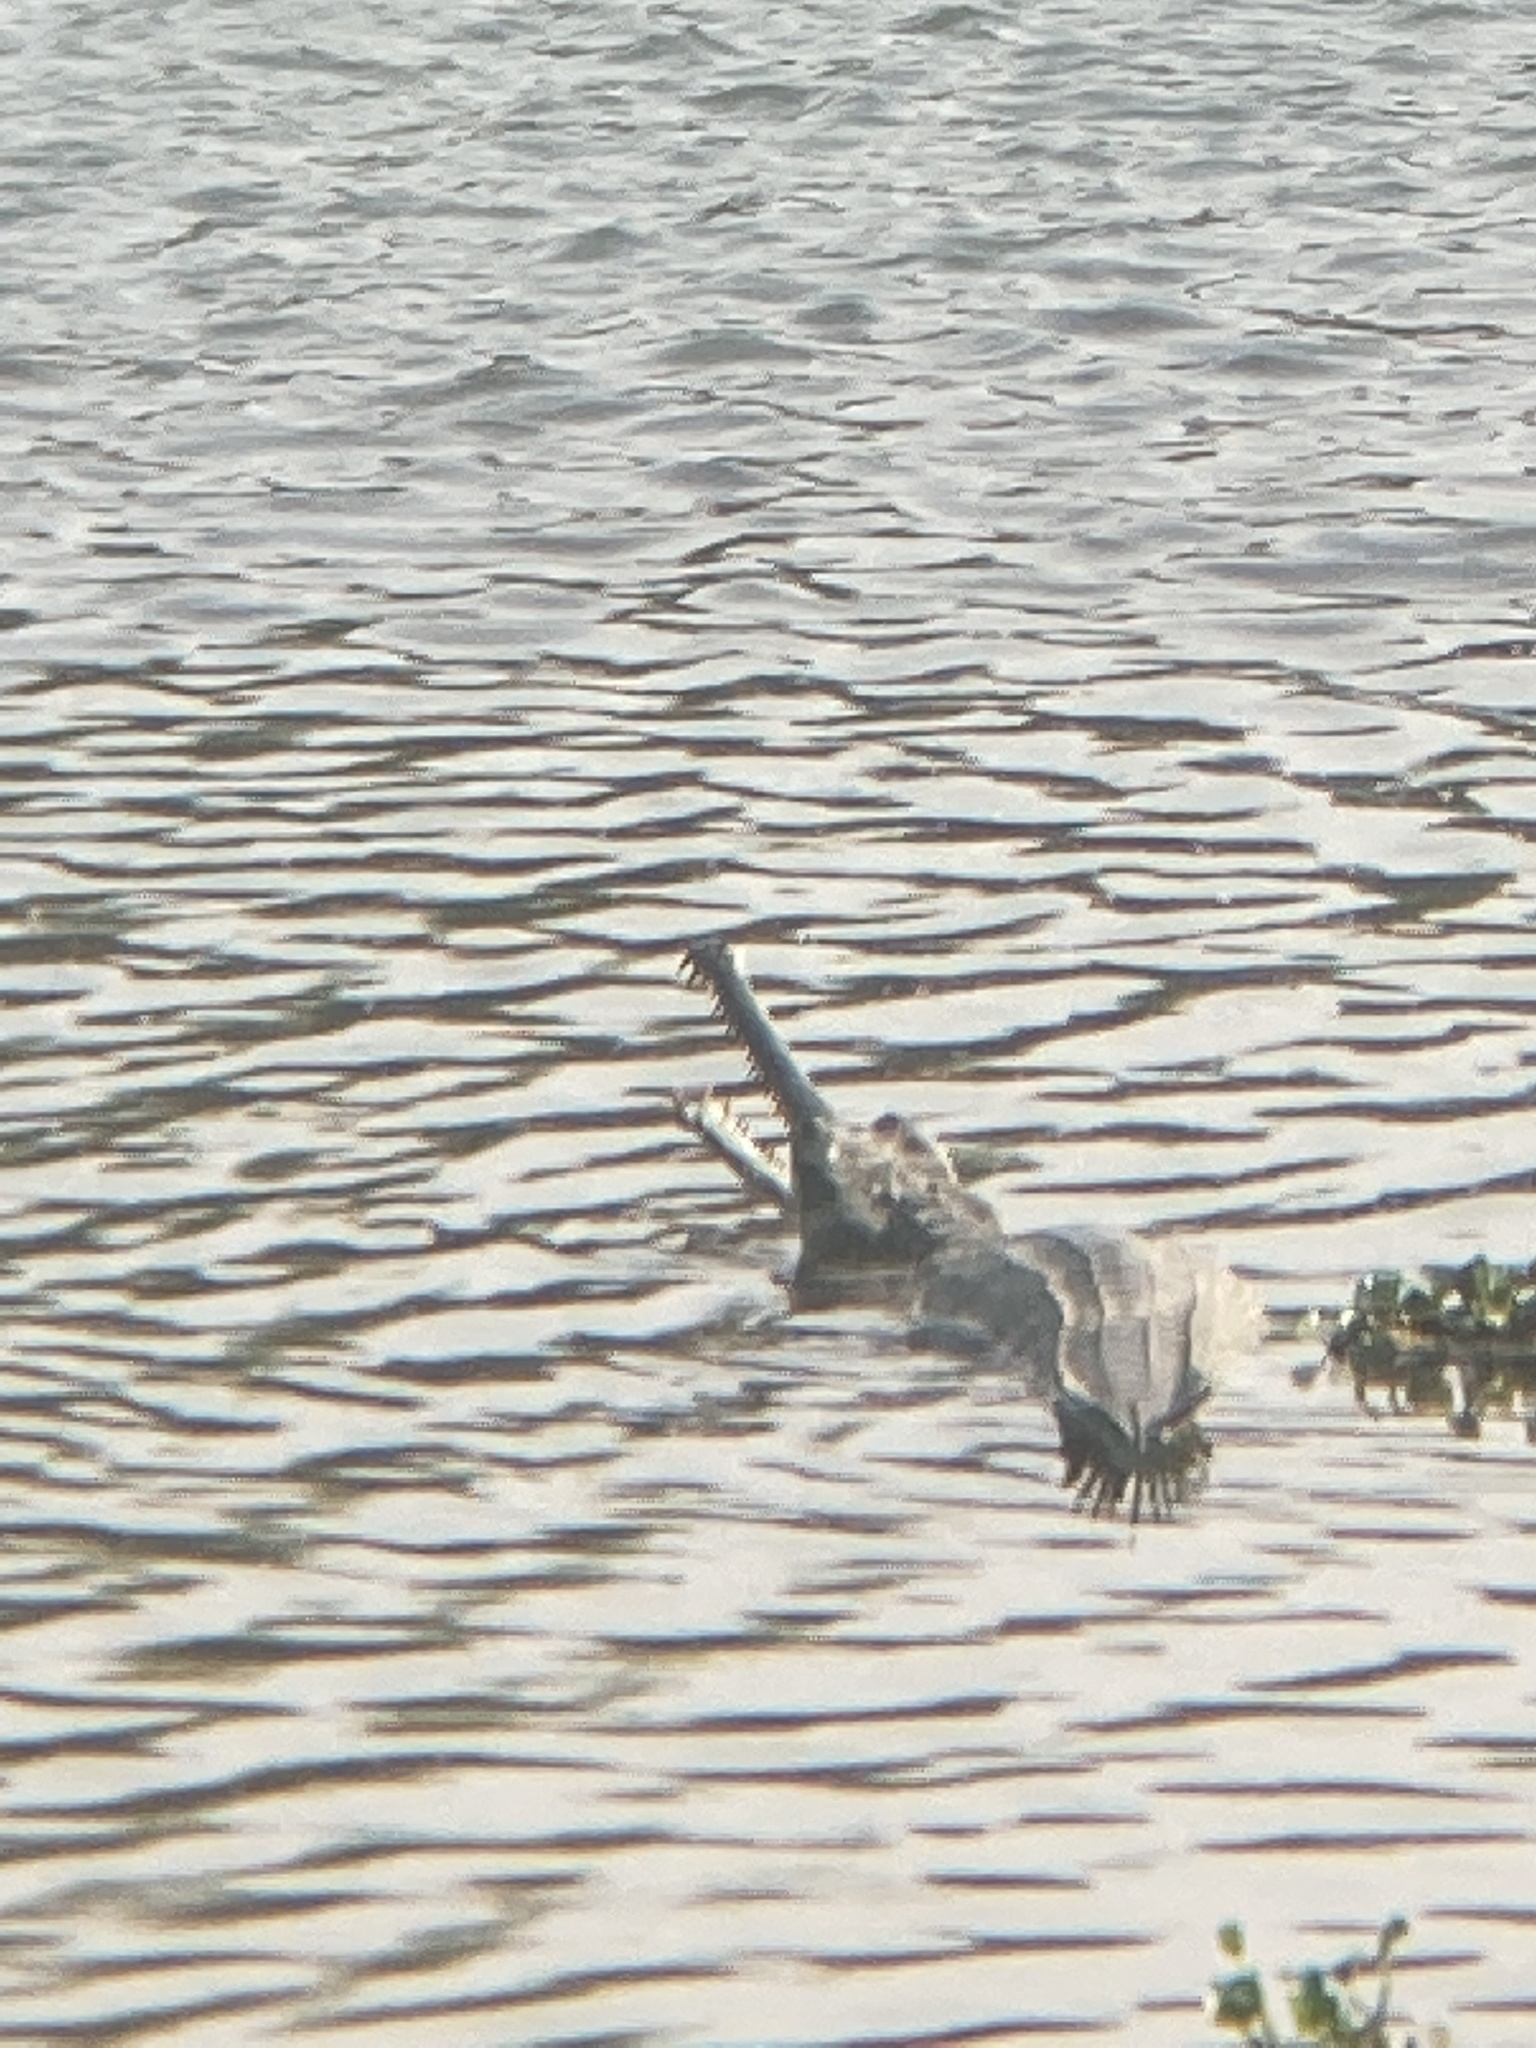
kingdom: Animalia
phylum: Chordata
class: Crocodylia
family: Gavialidae
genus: Gavialis
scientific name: Gavialis gangeticus
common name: Gharial
